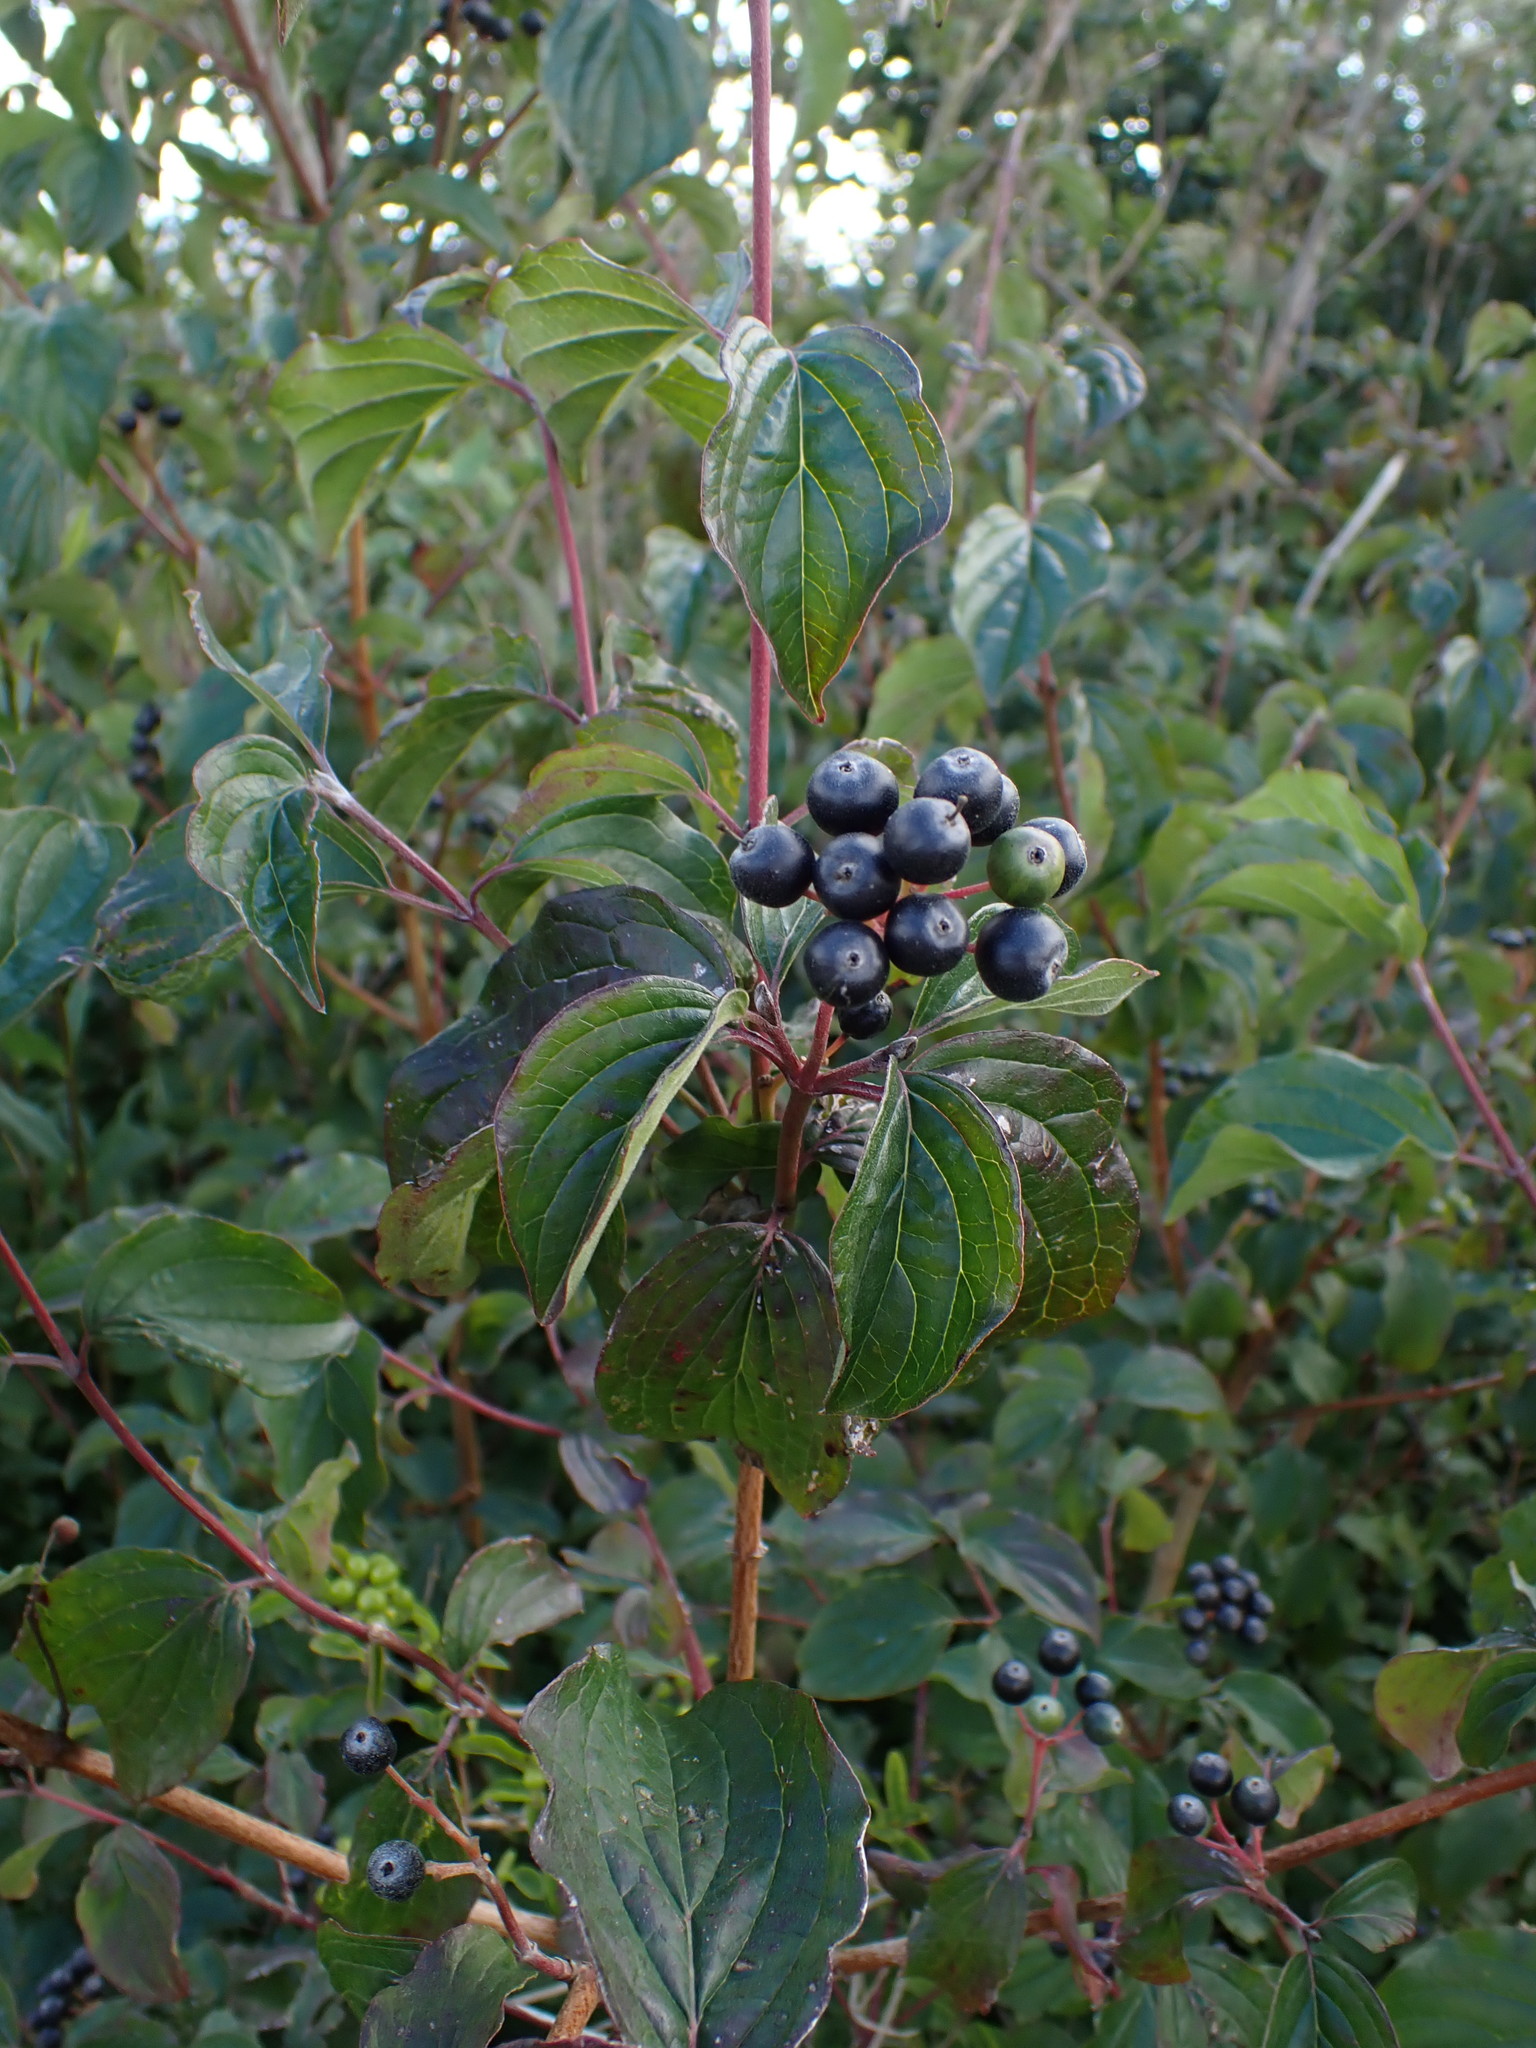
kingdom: Plantae
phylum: Tracheophyta
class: Magnoliopsida
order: Cornales
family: Cornaceae
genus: Cornus
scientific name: Cornus sanguinea
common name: Dogwood
